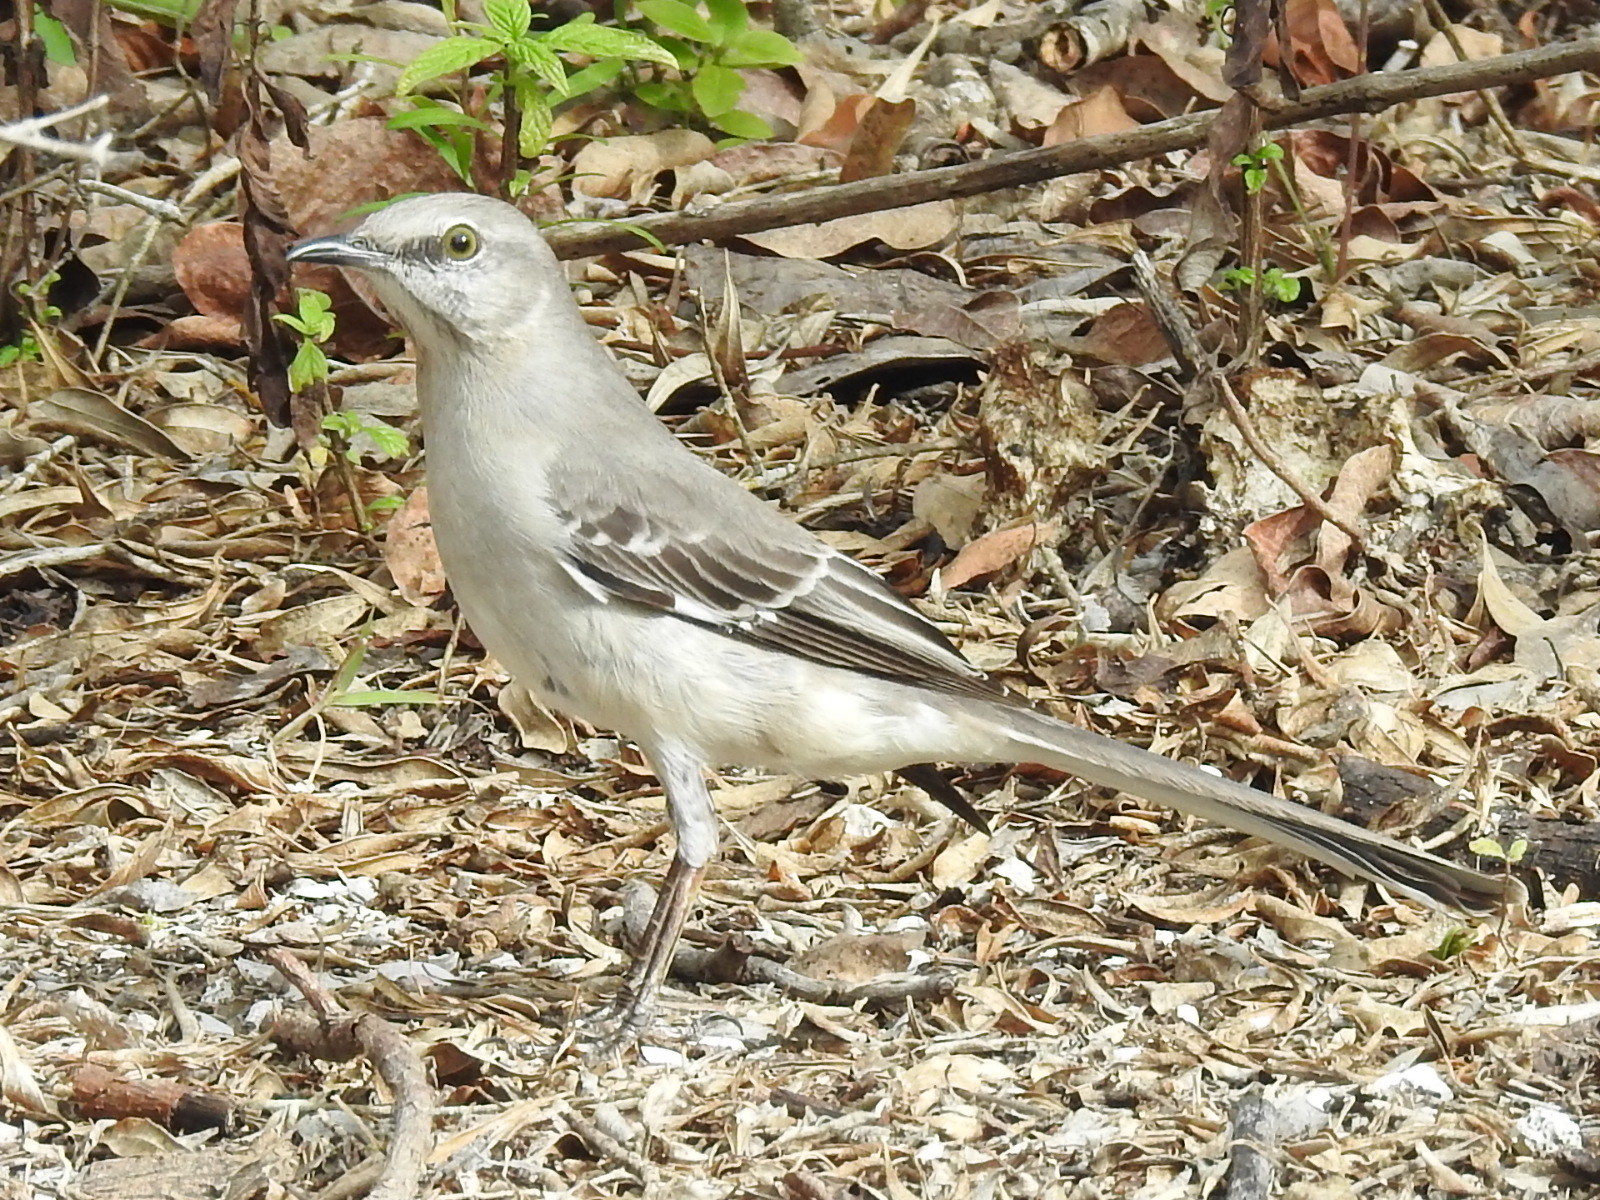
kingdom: Animalia
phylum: Chordata
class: Aves
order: Passeriformes
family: Mimidae
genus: Mimus
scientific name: Mimus polyglottos
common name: Northern mockingbird
